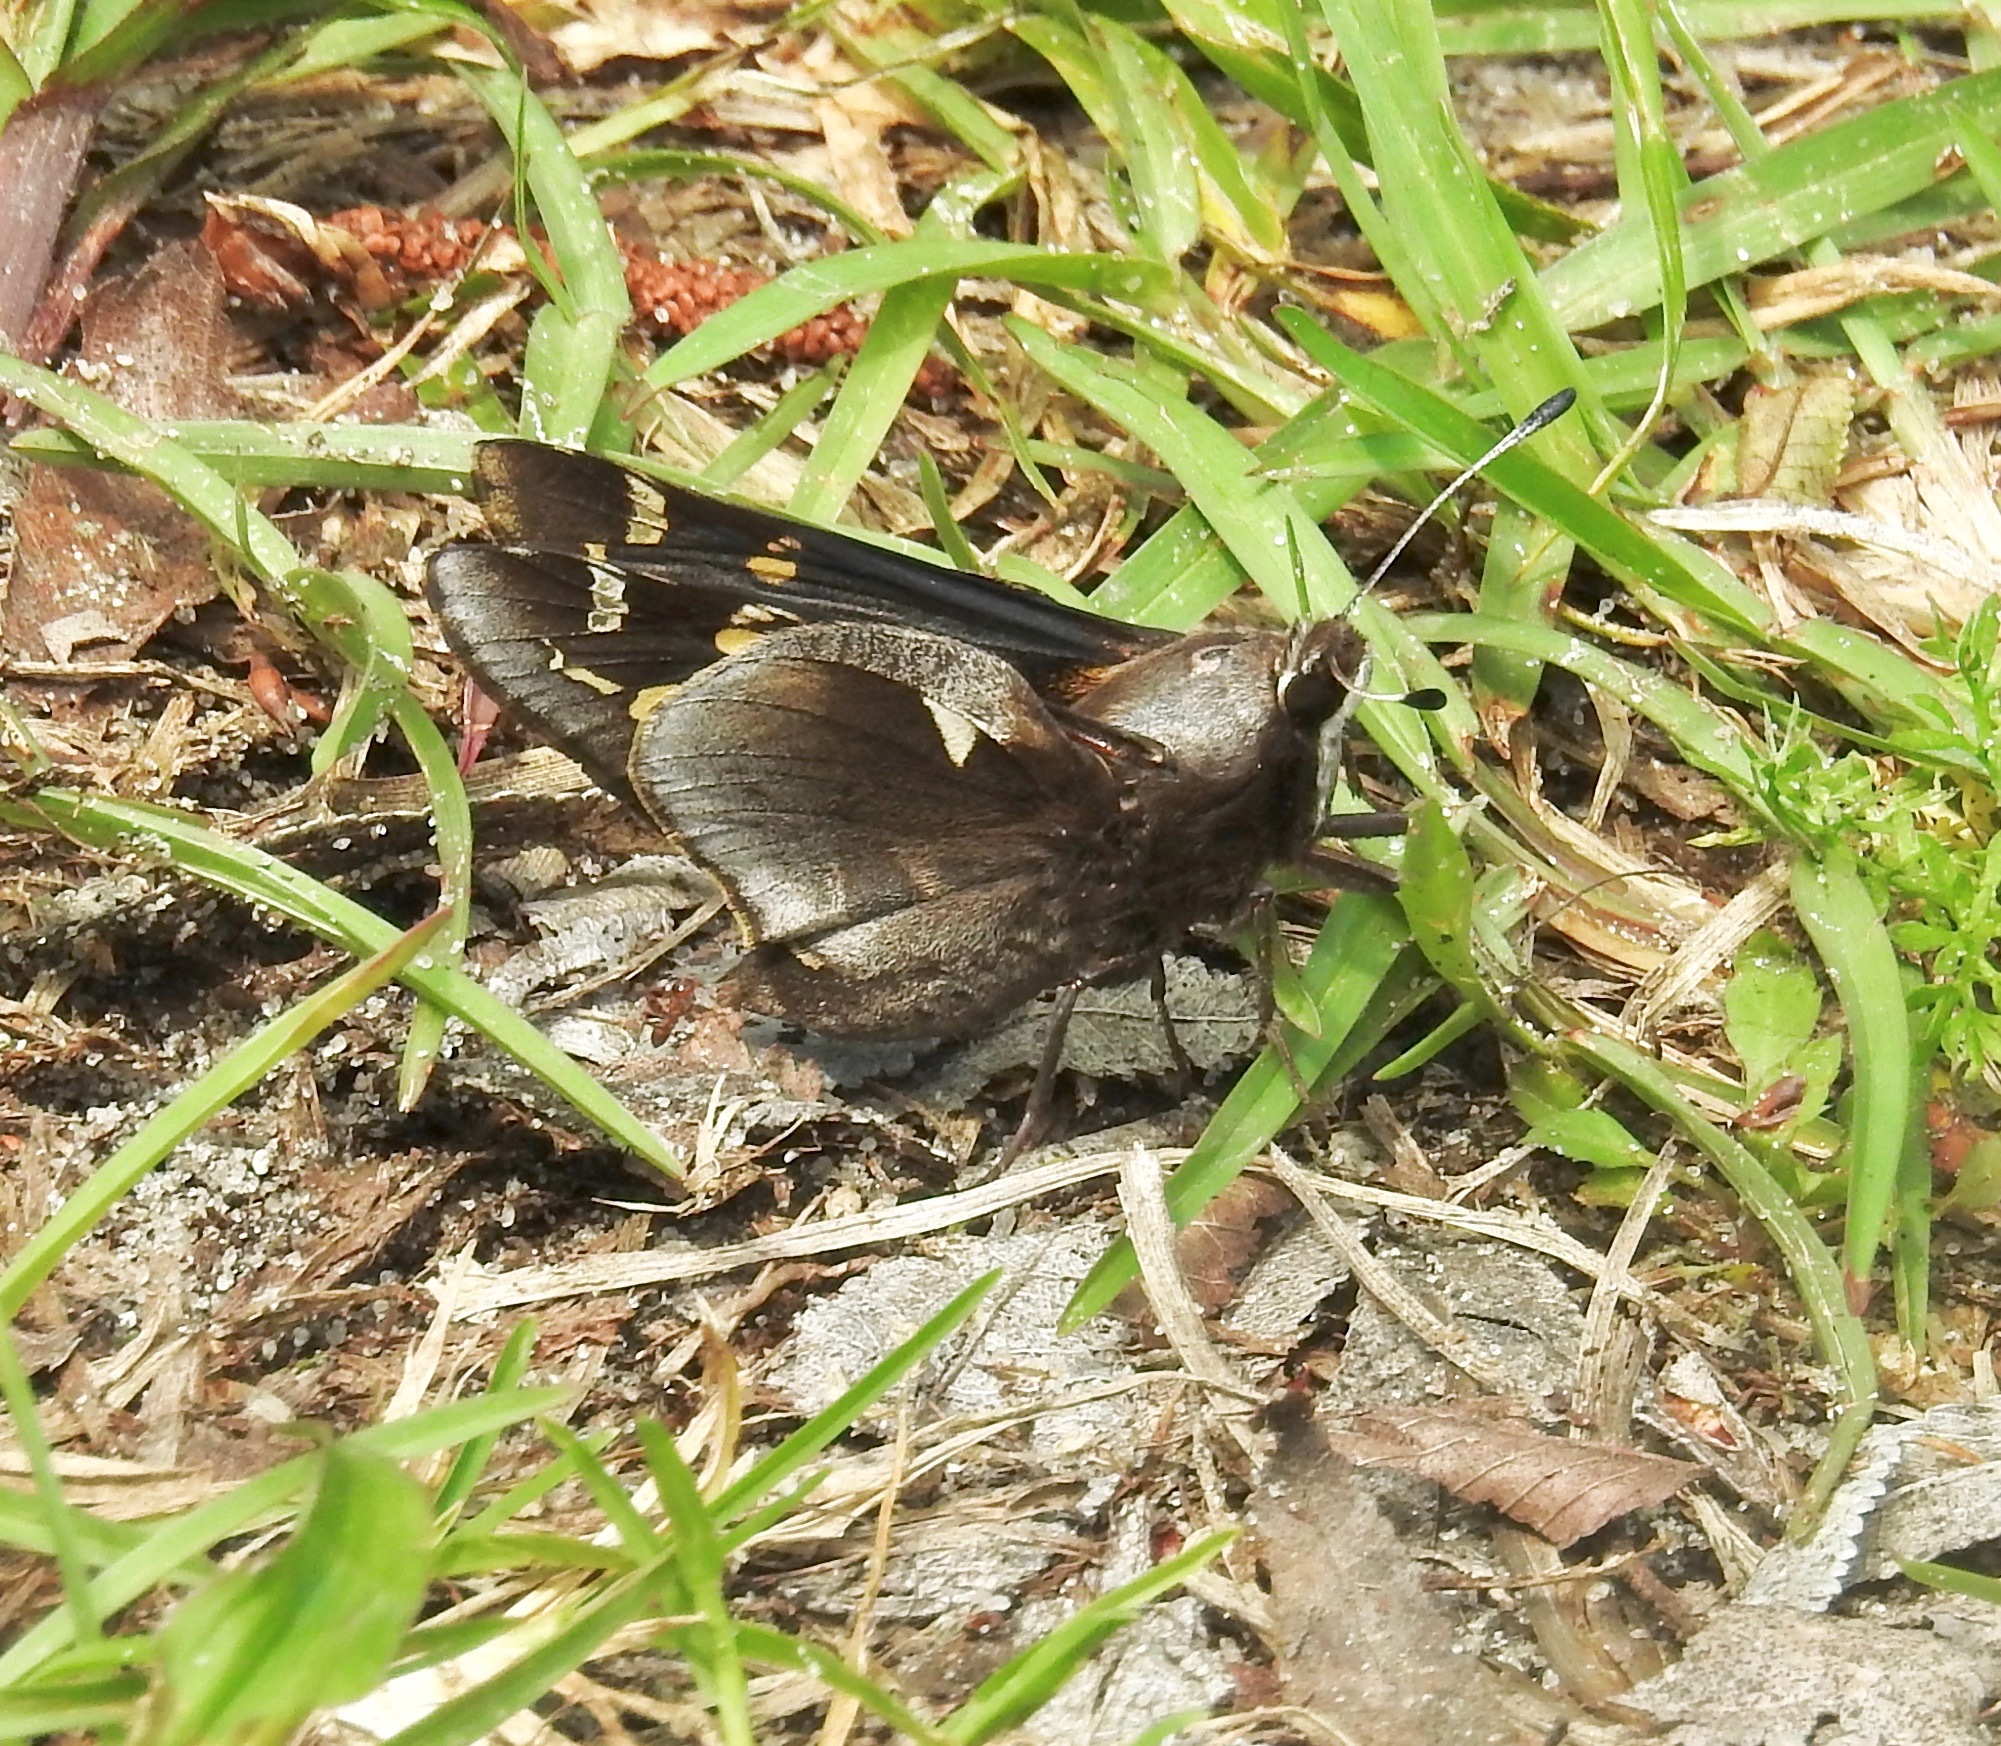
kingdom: Animalia
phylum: Arthropoda
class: Insecta
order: Lepidoptera
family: Hesperiidae
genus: Megathymus
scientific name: Megathymus yuccae
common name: Yucca giant-skipper
